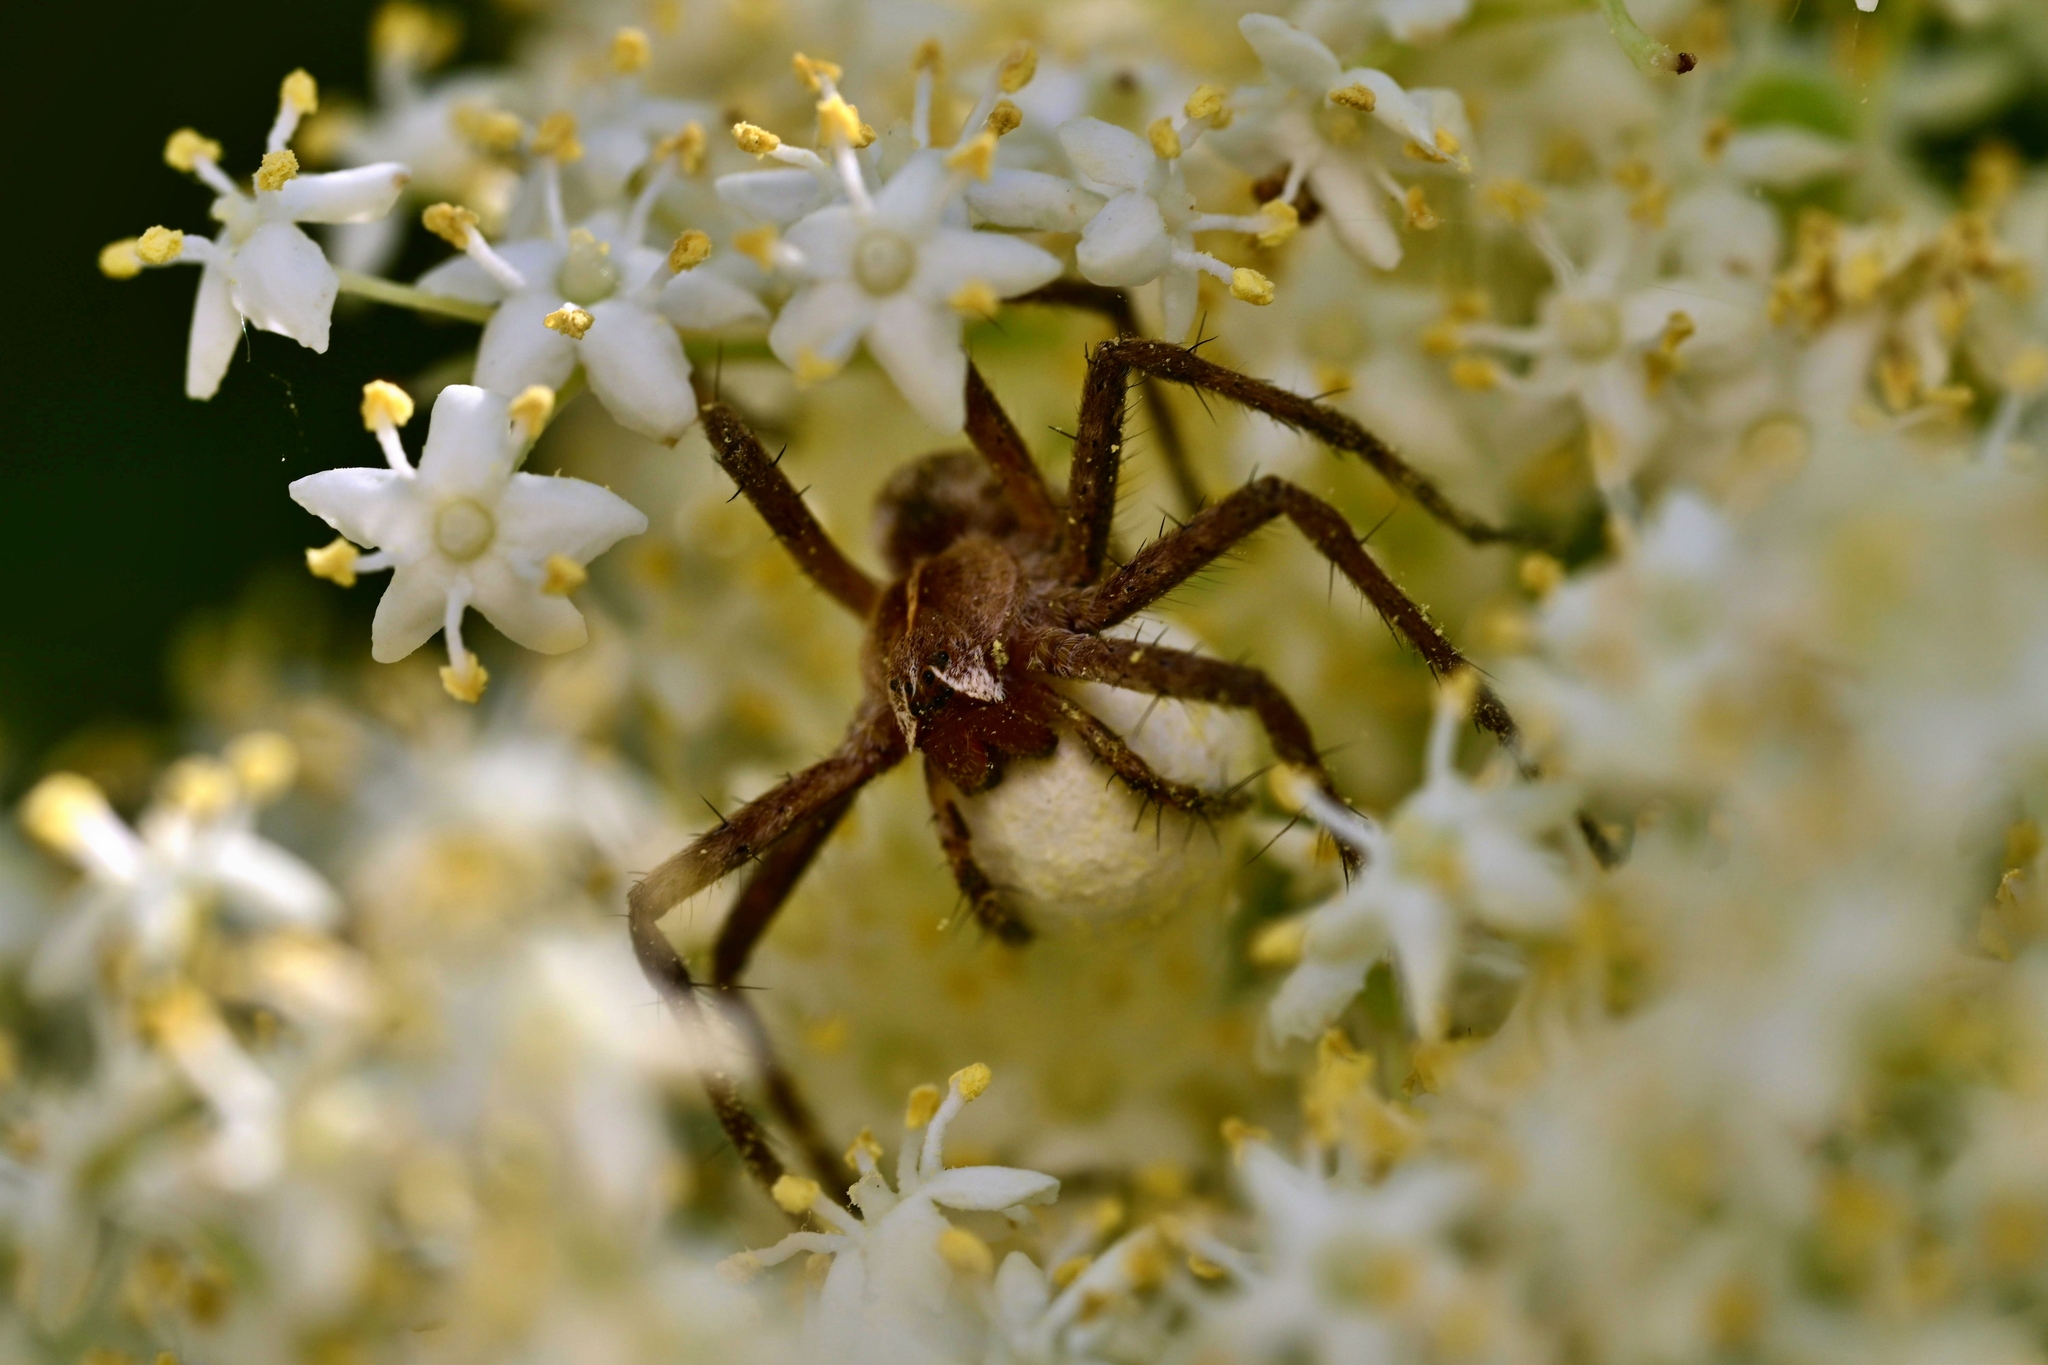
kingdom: Animalia
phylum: Arthropoda
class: Arachnida
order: Araneae
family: Pisauridae
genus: Pisaura
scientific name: Pisaura mirabilis
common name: Tent spider
